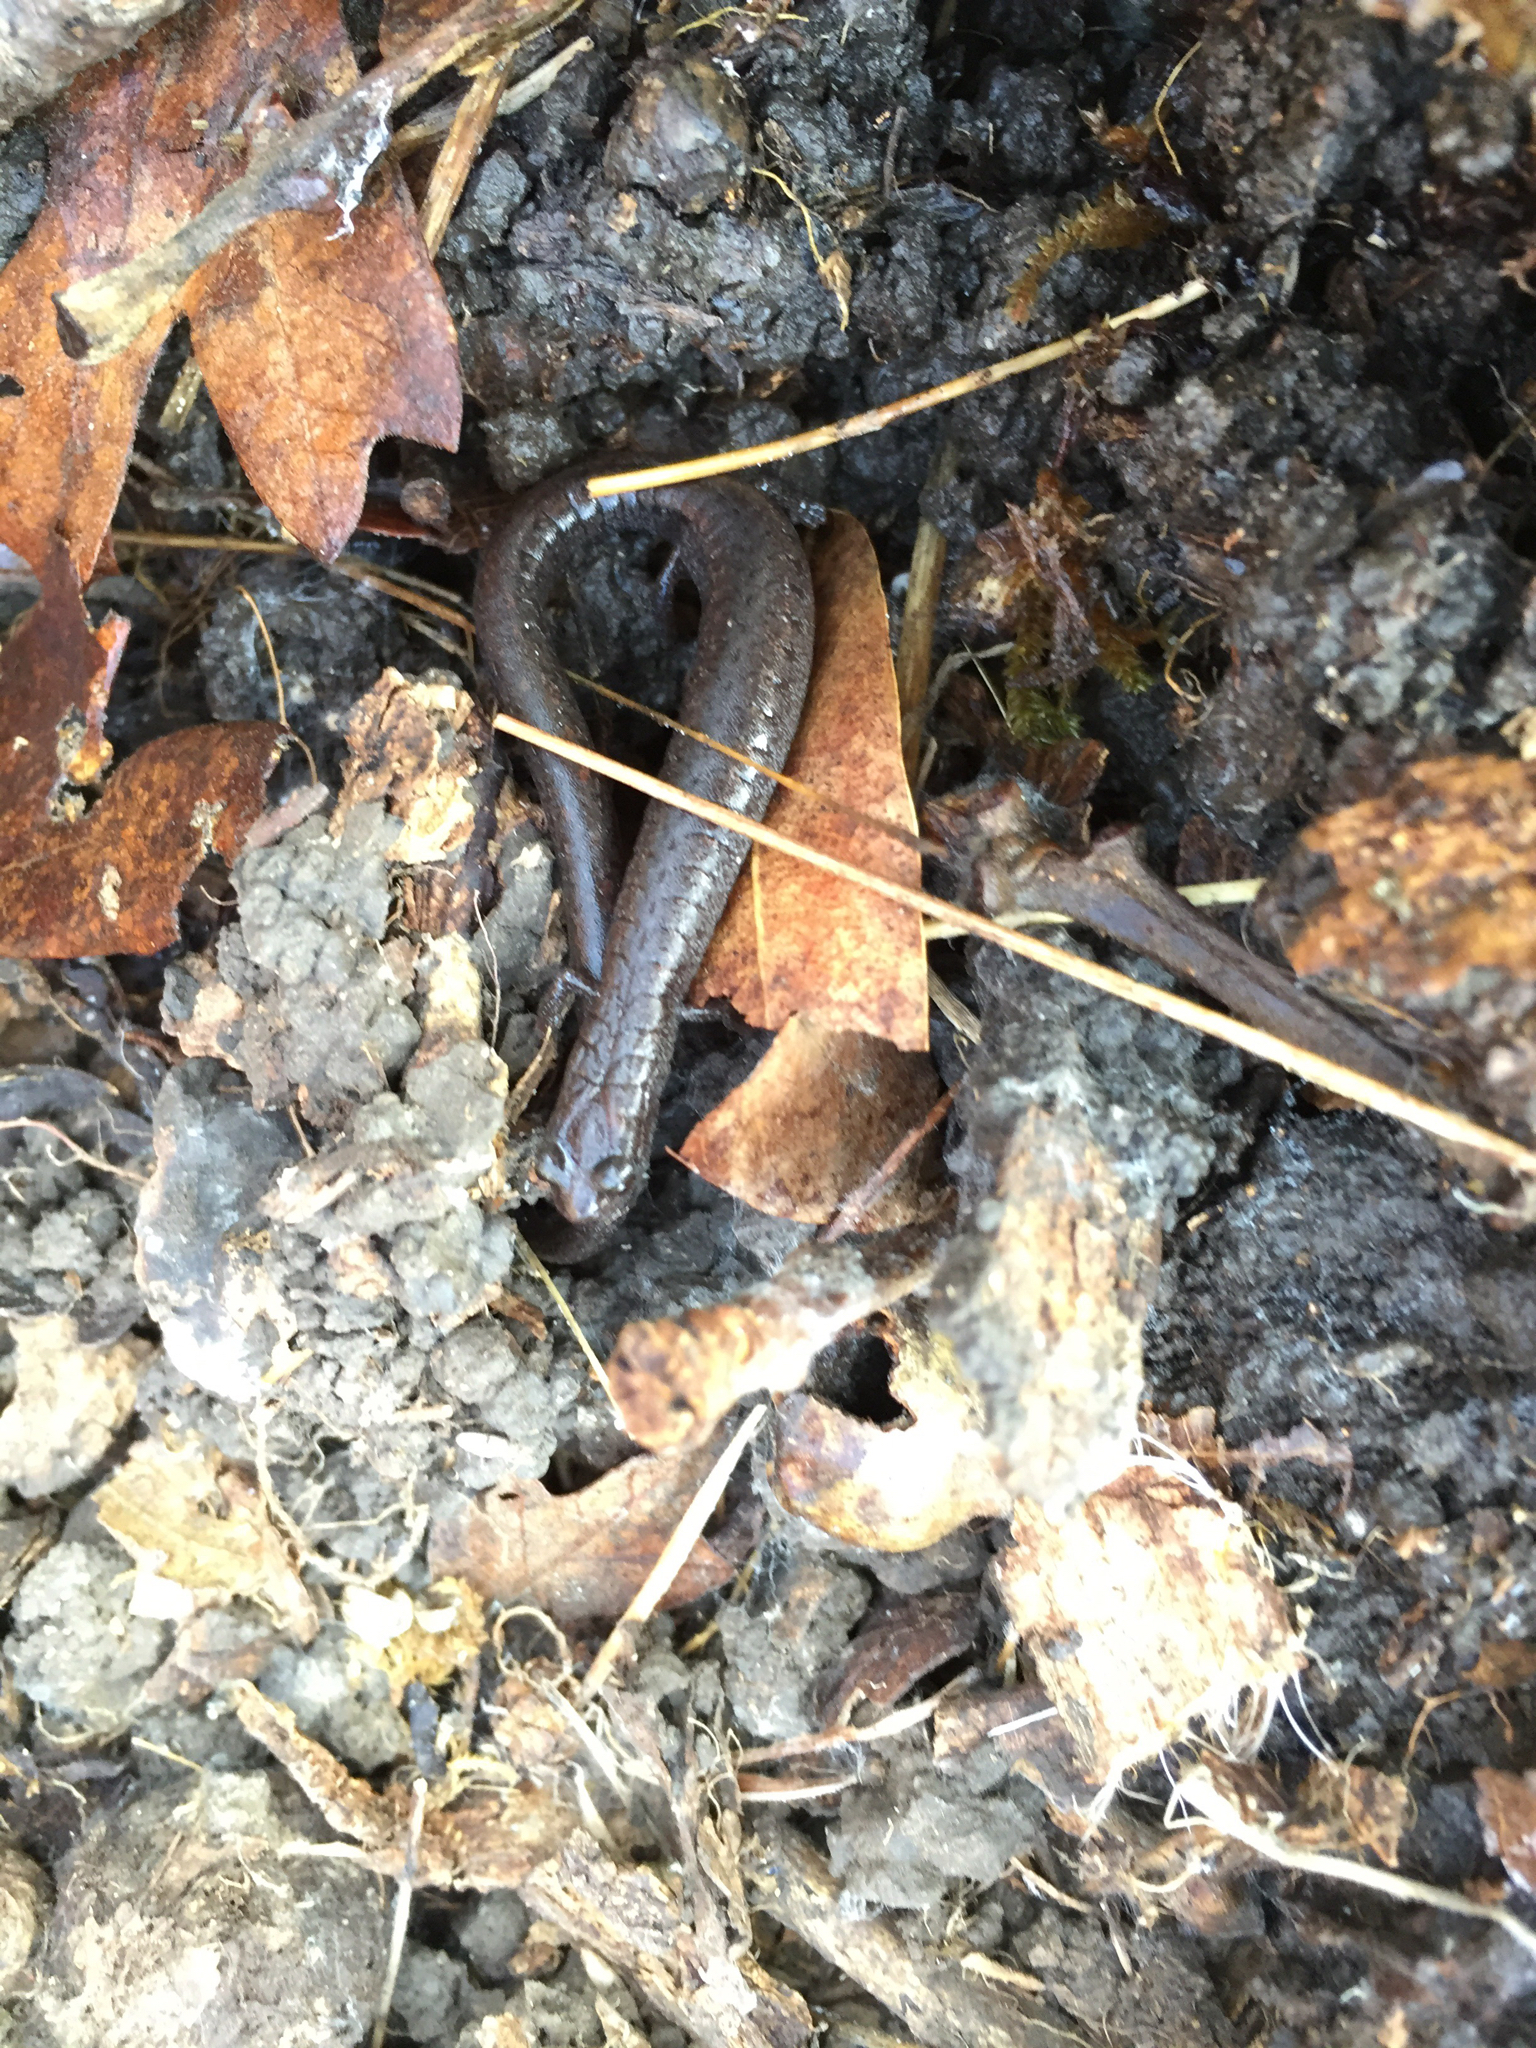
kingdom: Animalia
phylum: Chordata
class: Amphibia
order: Caudata
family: Plethodontidae
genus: Batrachoseps
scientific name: Batrachoseps attenuatus
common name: California slender salamander
